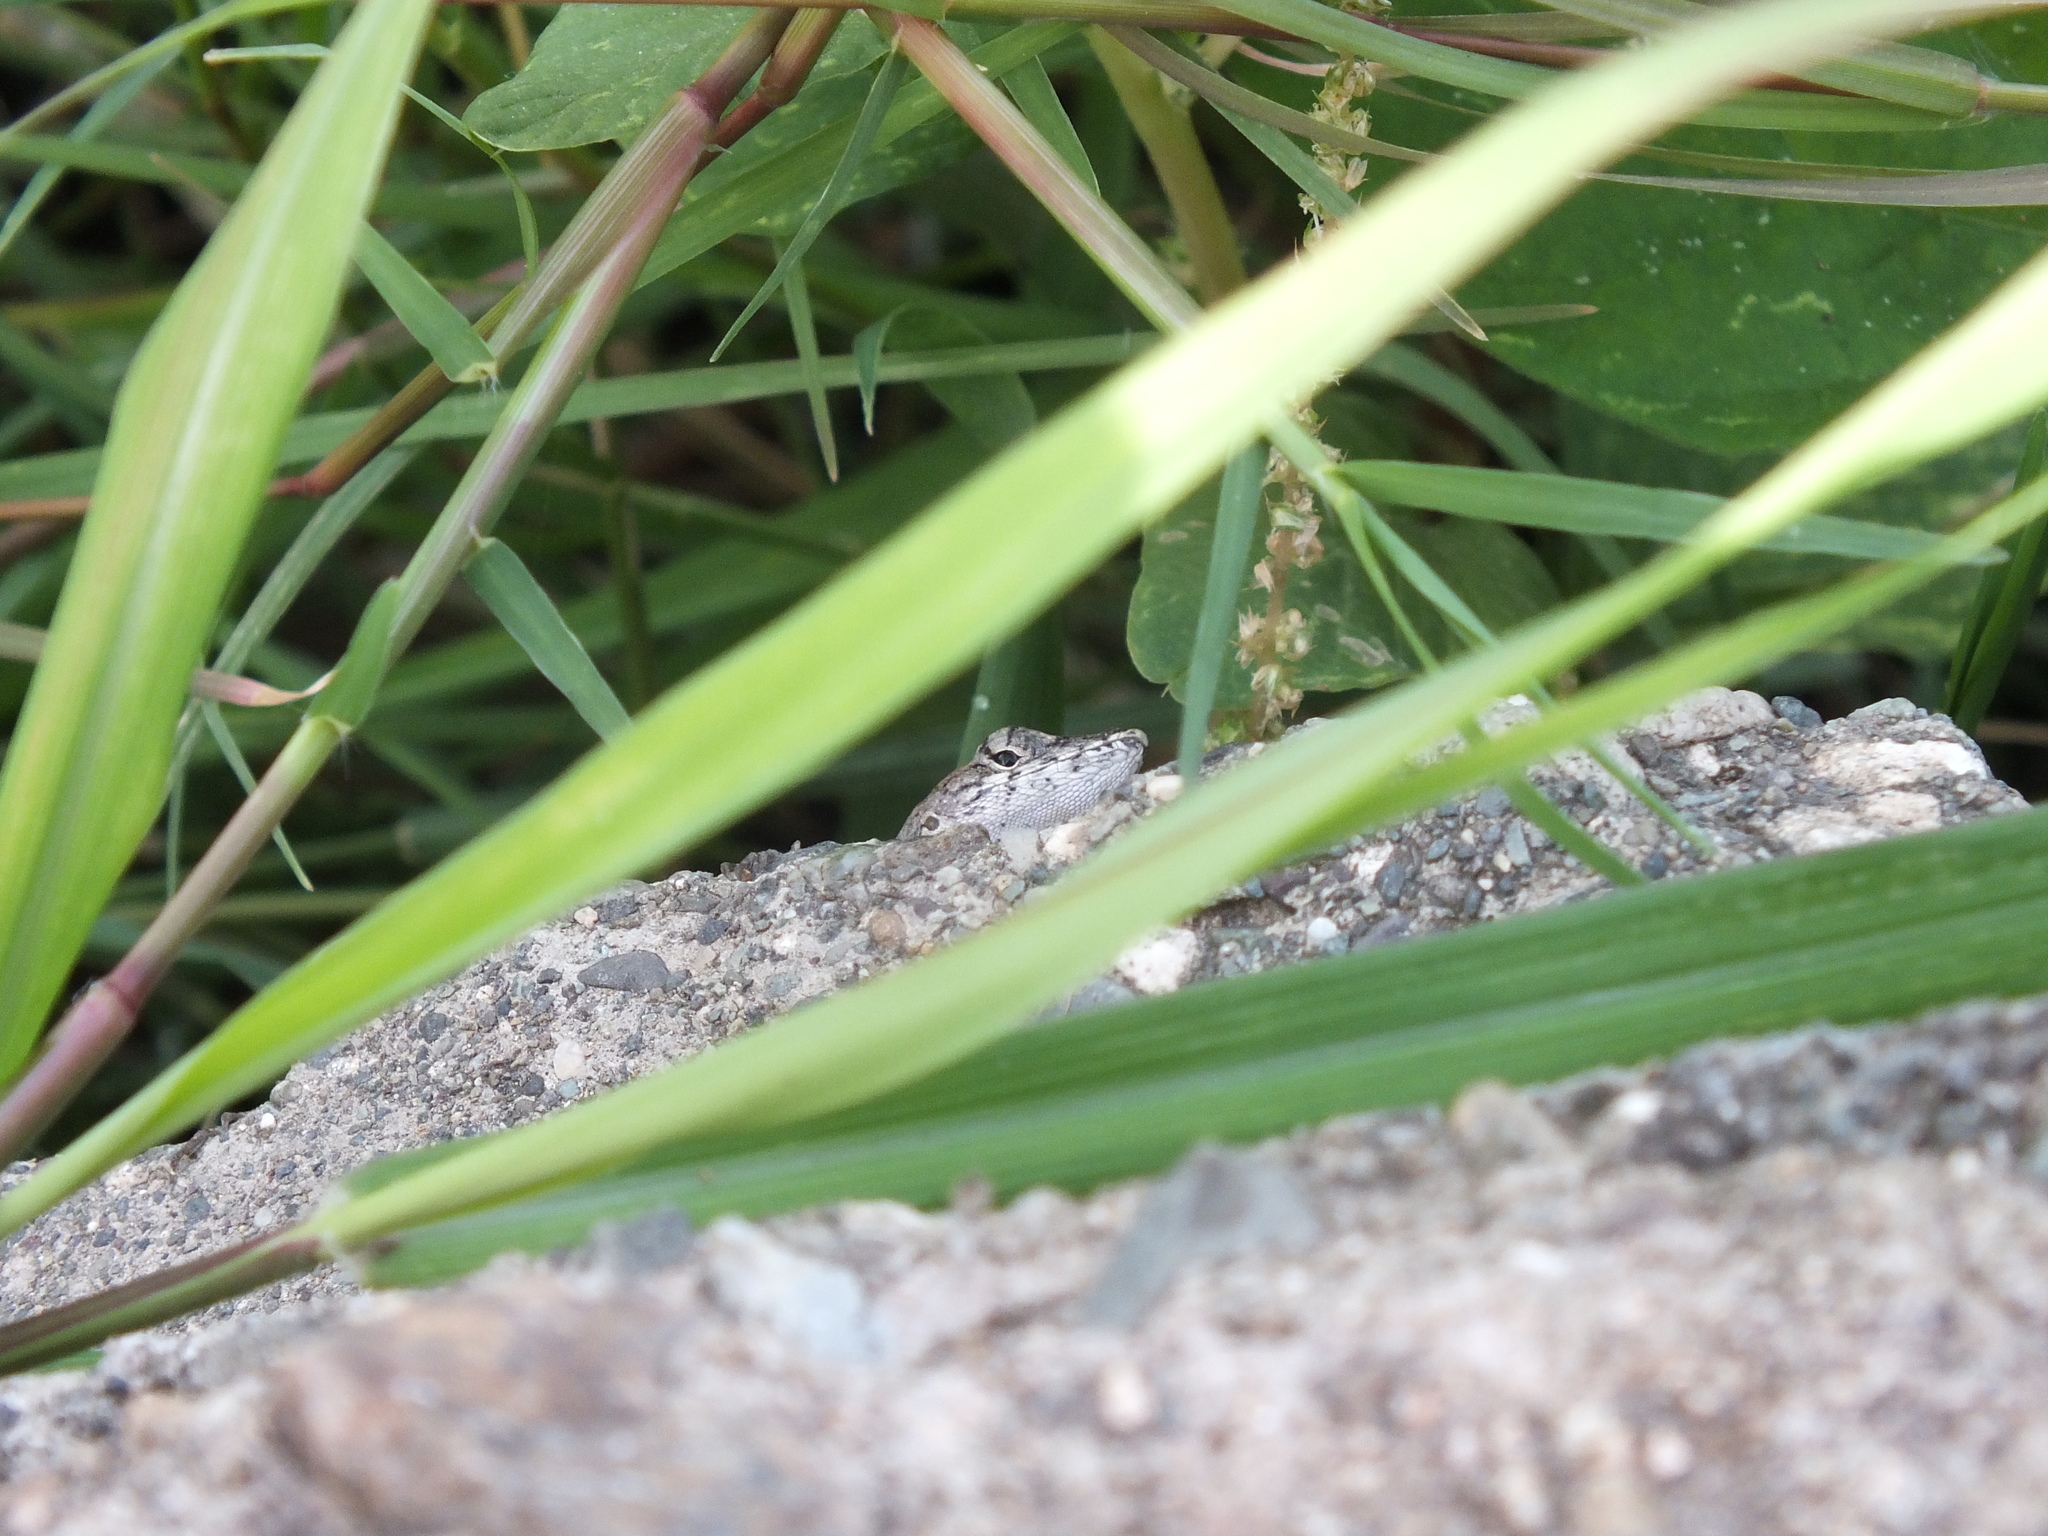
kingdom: Animalia
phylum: Chordata
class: Squamata
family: Dactyloidae
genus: Anolis
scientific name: Anolis sagrei
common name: Brown anole
